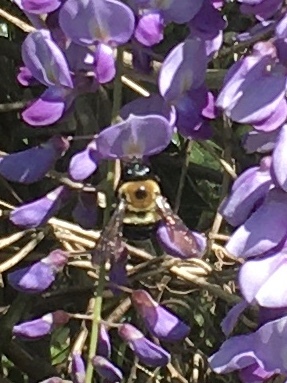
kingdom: Animalia
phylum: Arthropoda
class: Insecta
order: Hymenoptera
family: Apidae
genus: Xylocopa
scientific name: Xylocopa virginica
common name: Carpenter bee
